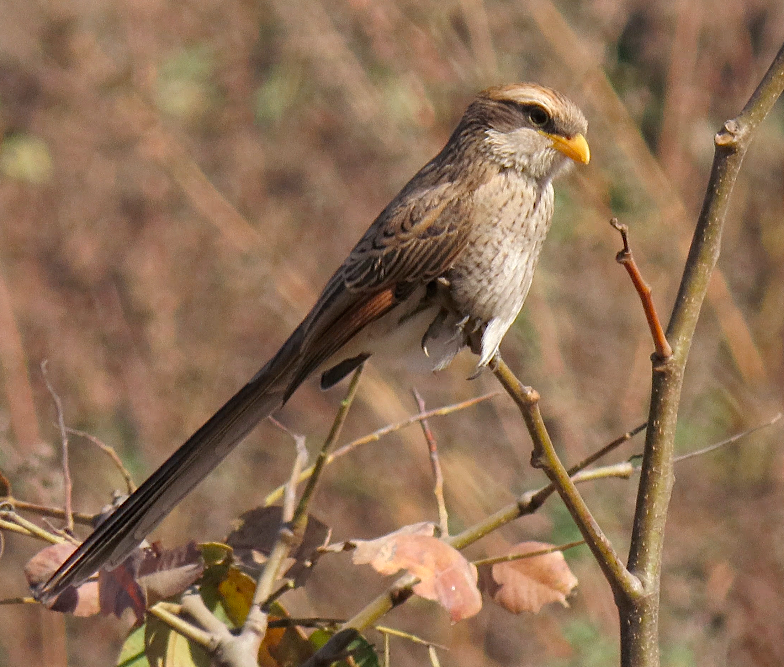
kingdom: Animalia
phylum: Chordata
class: Aves
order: Passeriformes
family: Laniidae
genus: Corvinella
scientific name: Corvinella corvina
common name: Yellow-billed shrike
